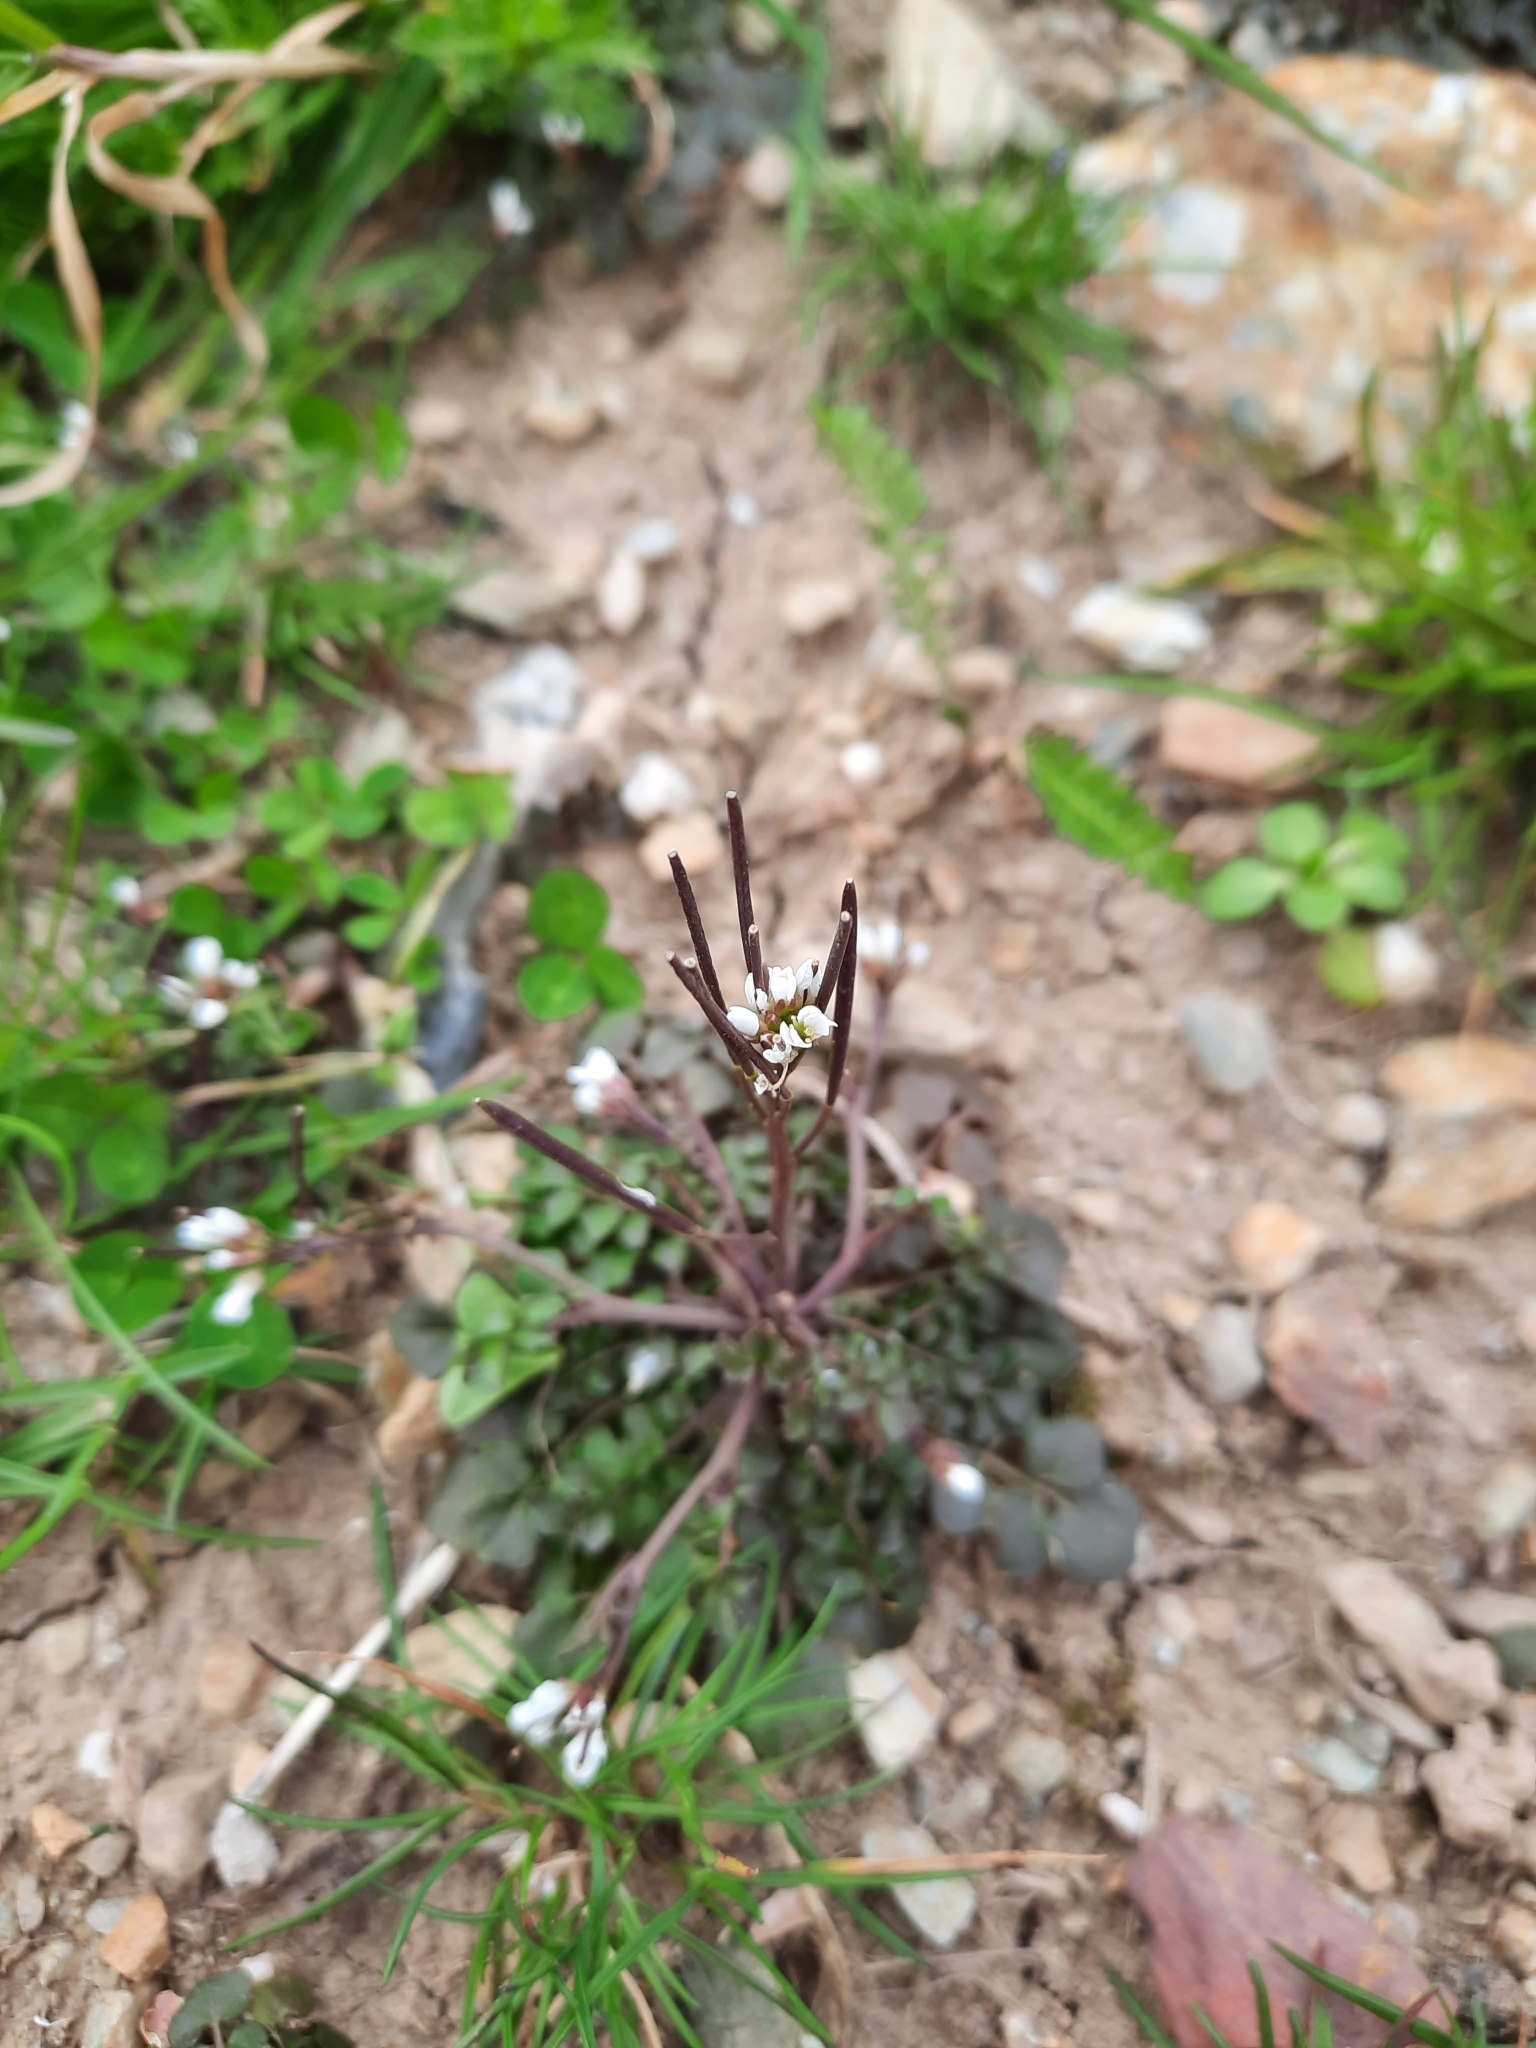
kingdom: Plantae
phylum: Tracheophyta
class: Magnoliopsida
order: Brassicales
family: Brassicaceae
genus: Cardamine
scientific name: Cardamine hirsuta
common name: Hairy bittercress
